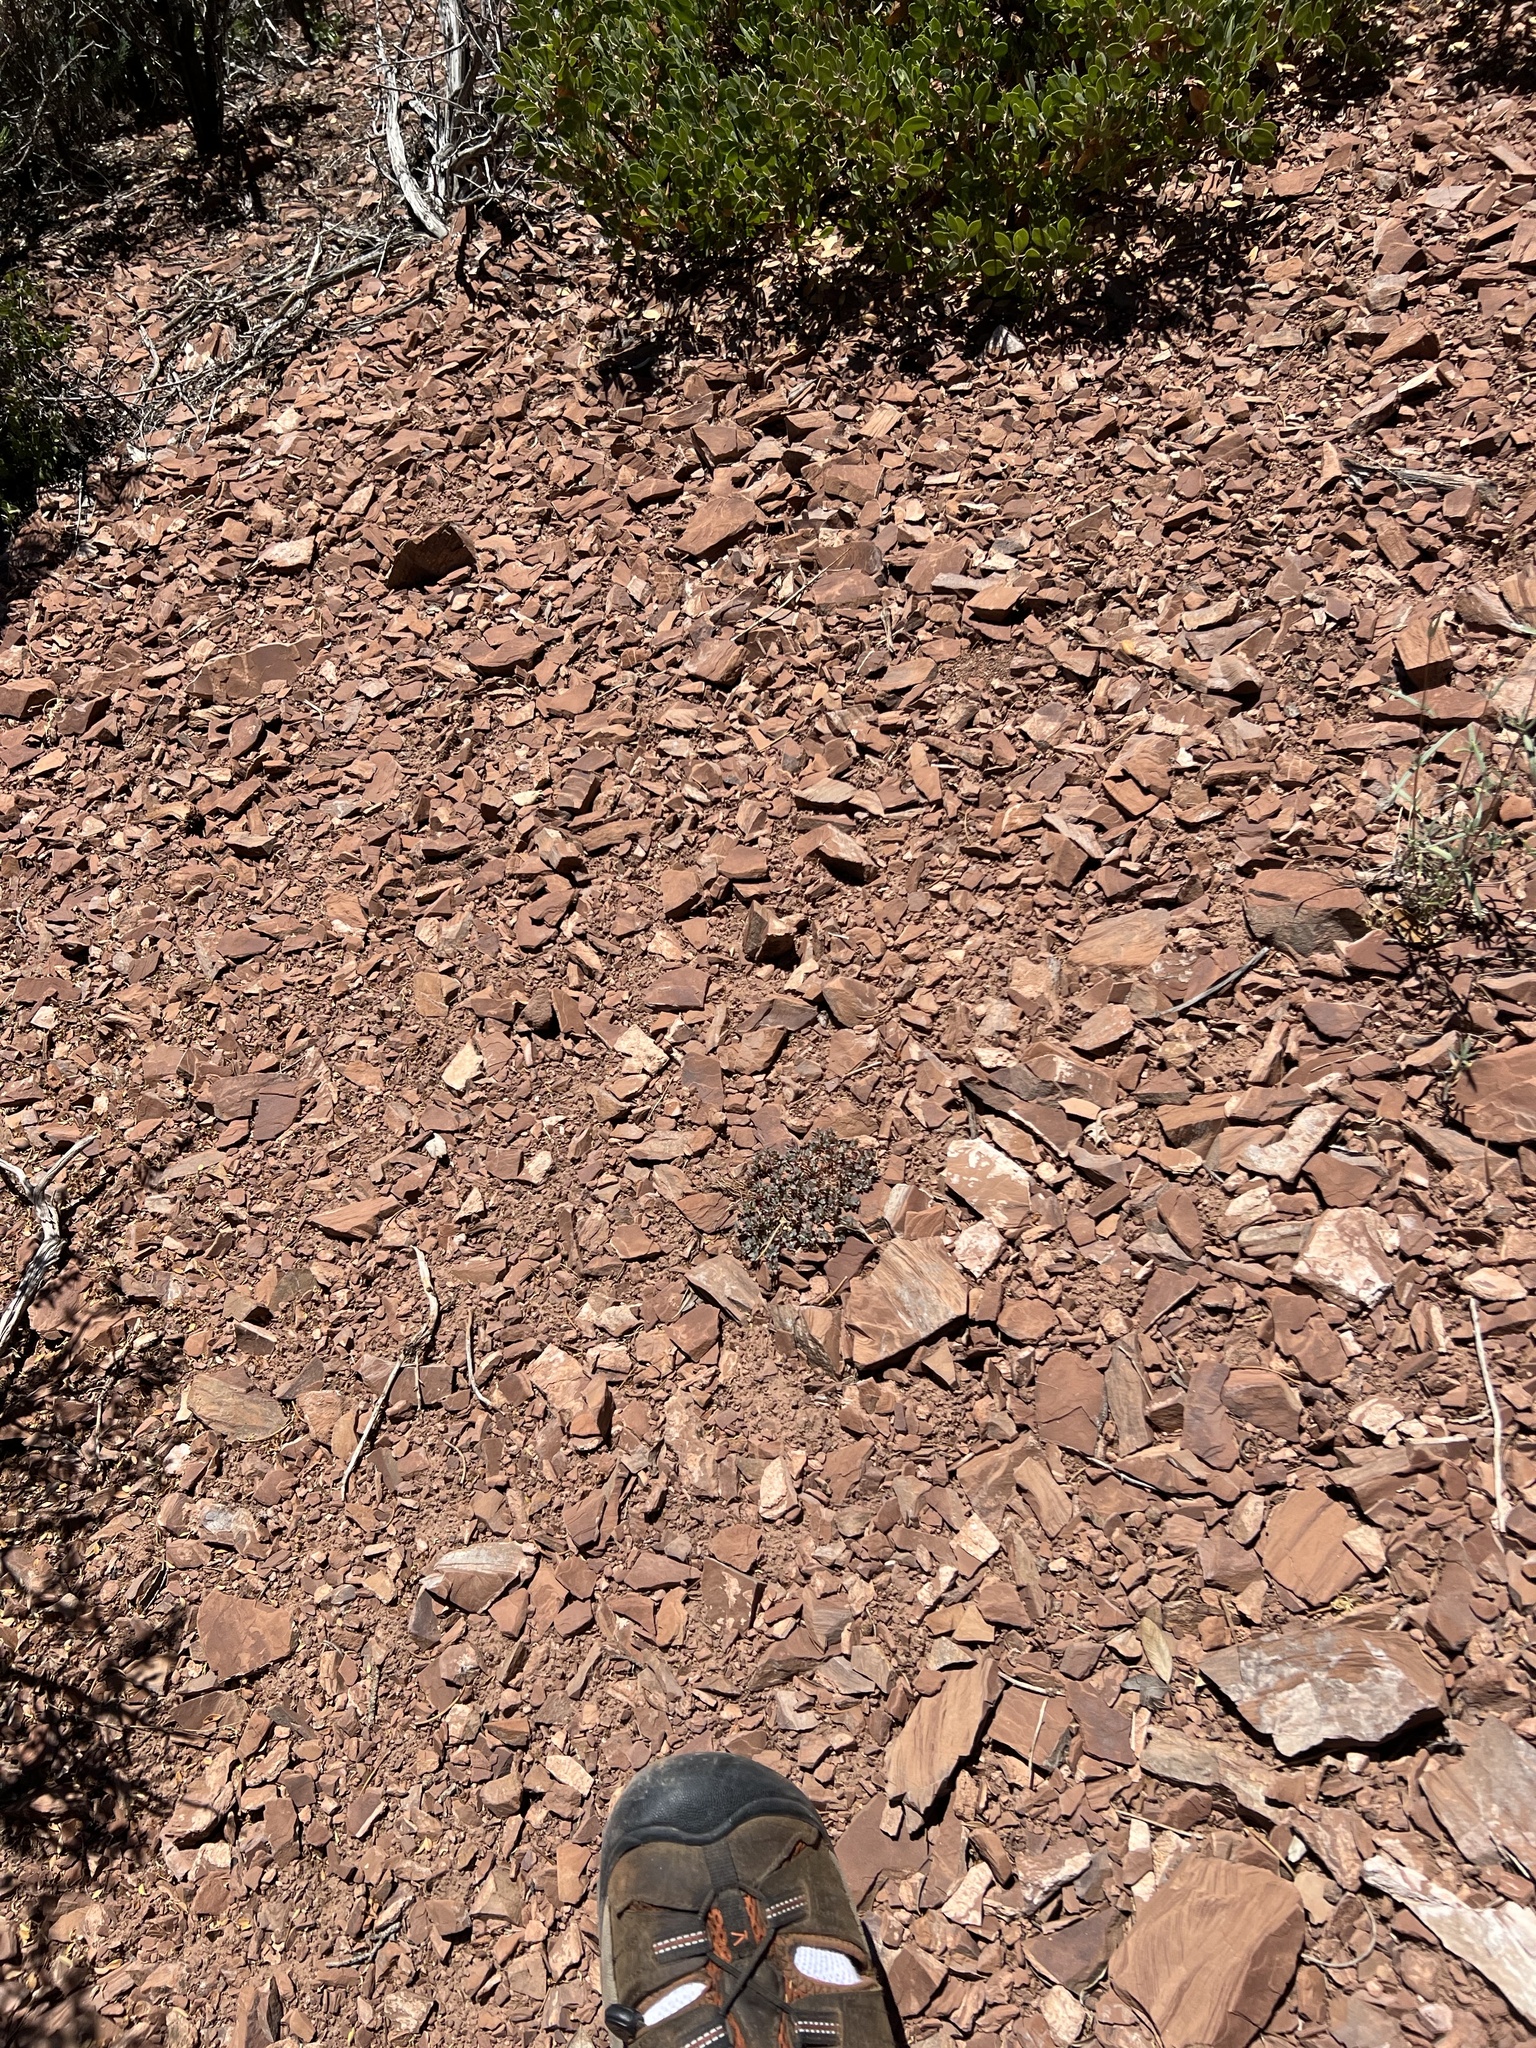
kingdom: Plantae
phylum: Tracheophyta
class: Magnoliopsida
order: Malpighiales
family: Euphorbiaceae
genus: Euphorbia
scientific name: Euphorbia fendleri
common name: Fendler's euphorbia
